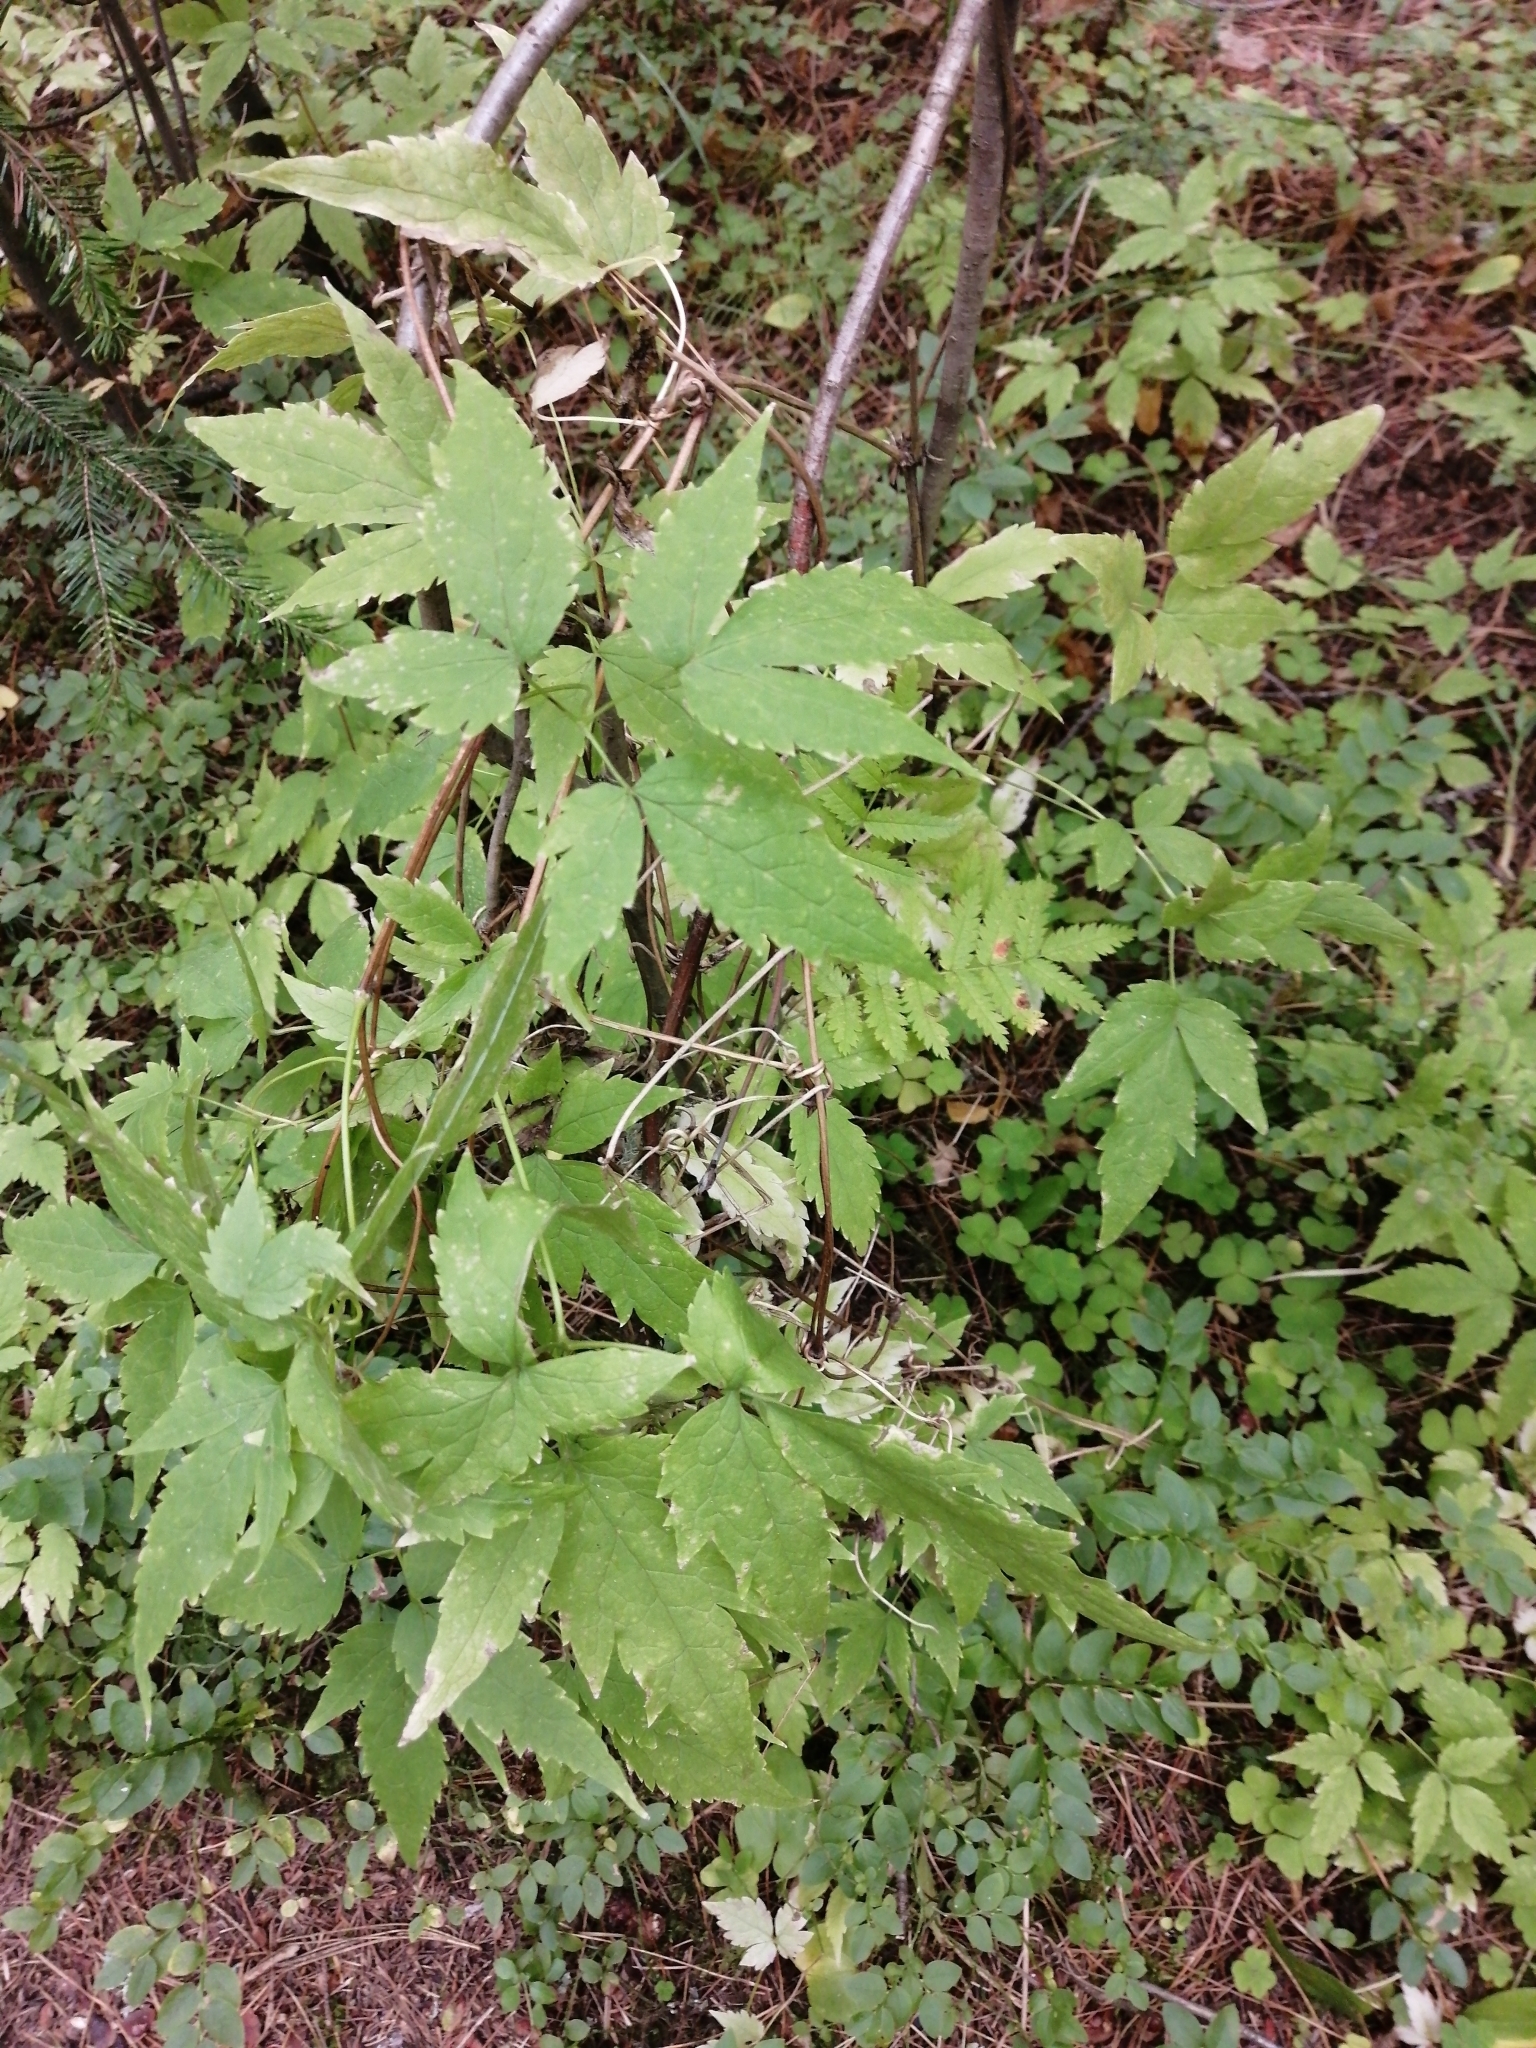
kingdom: Plantae
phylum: Tracheophyta
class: Magnoliopsida
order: Ranunculales
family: Ranunculaceae
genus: Clematis
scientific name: Clematis sibirica
